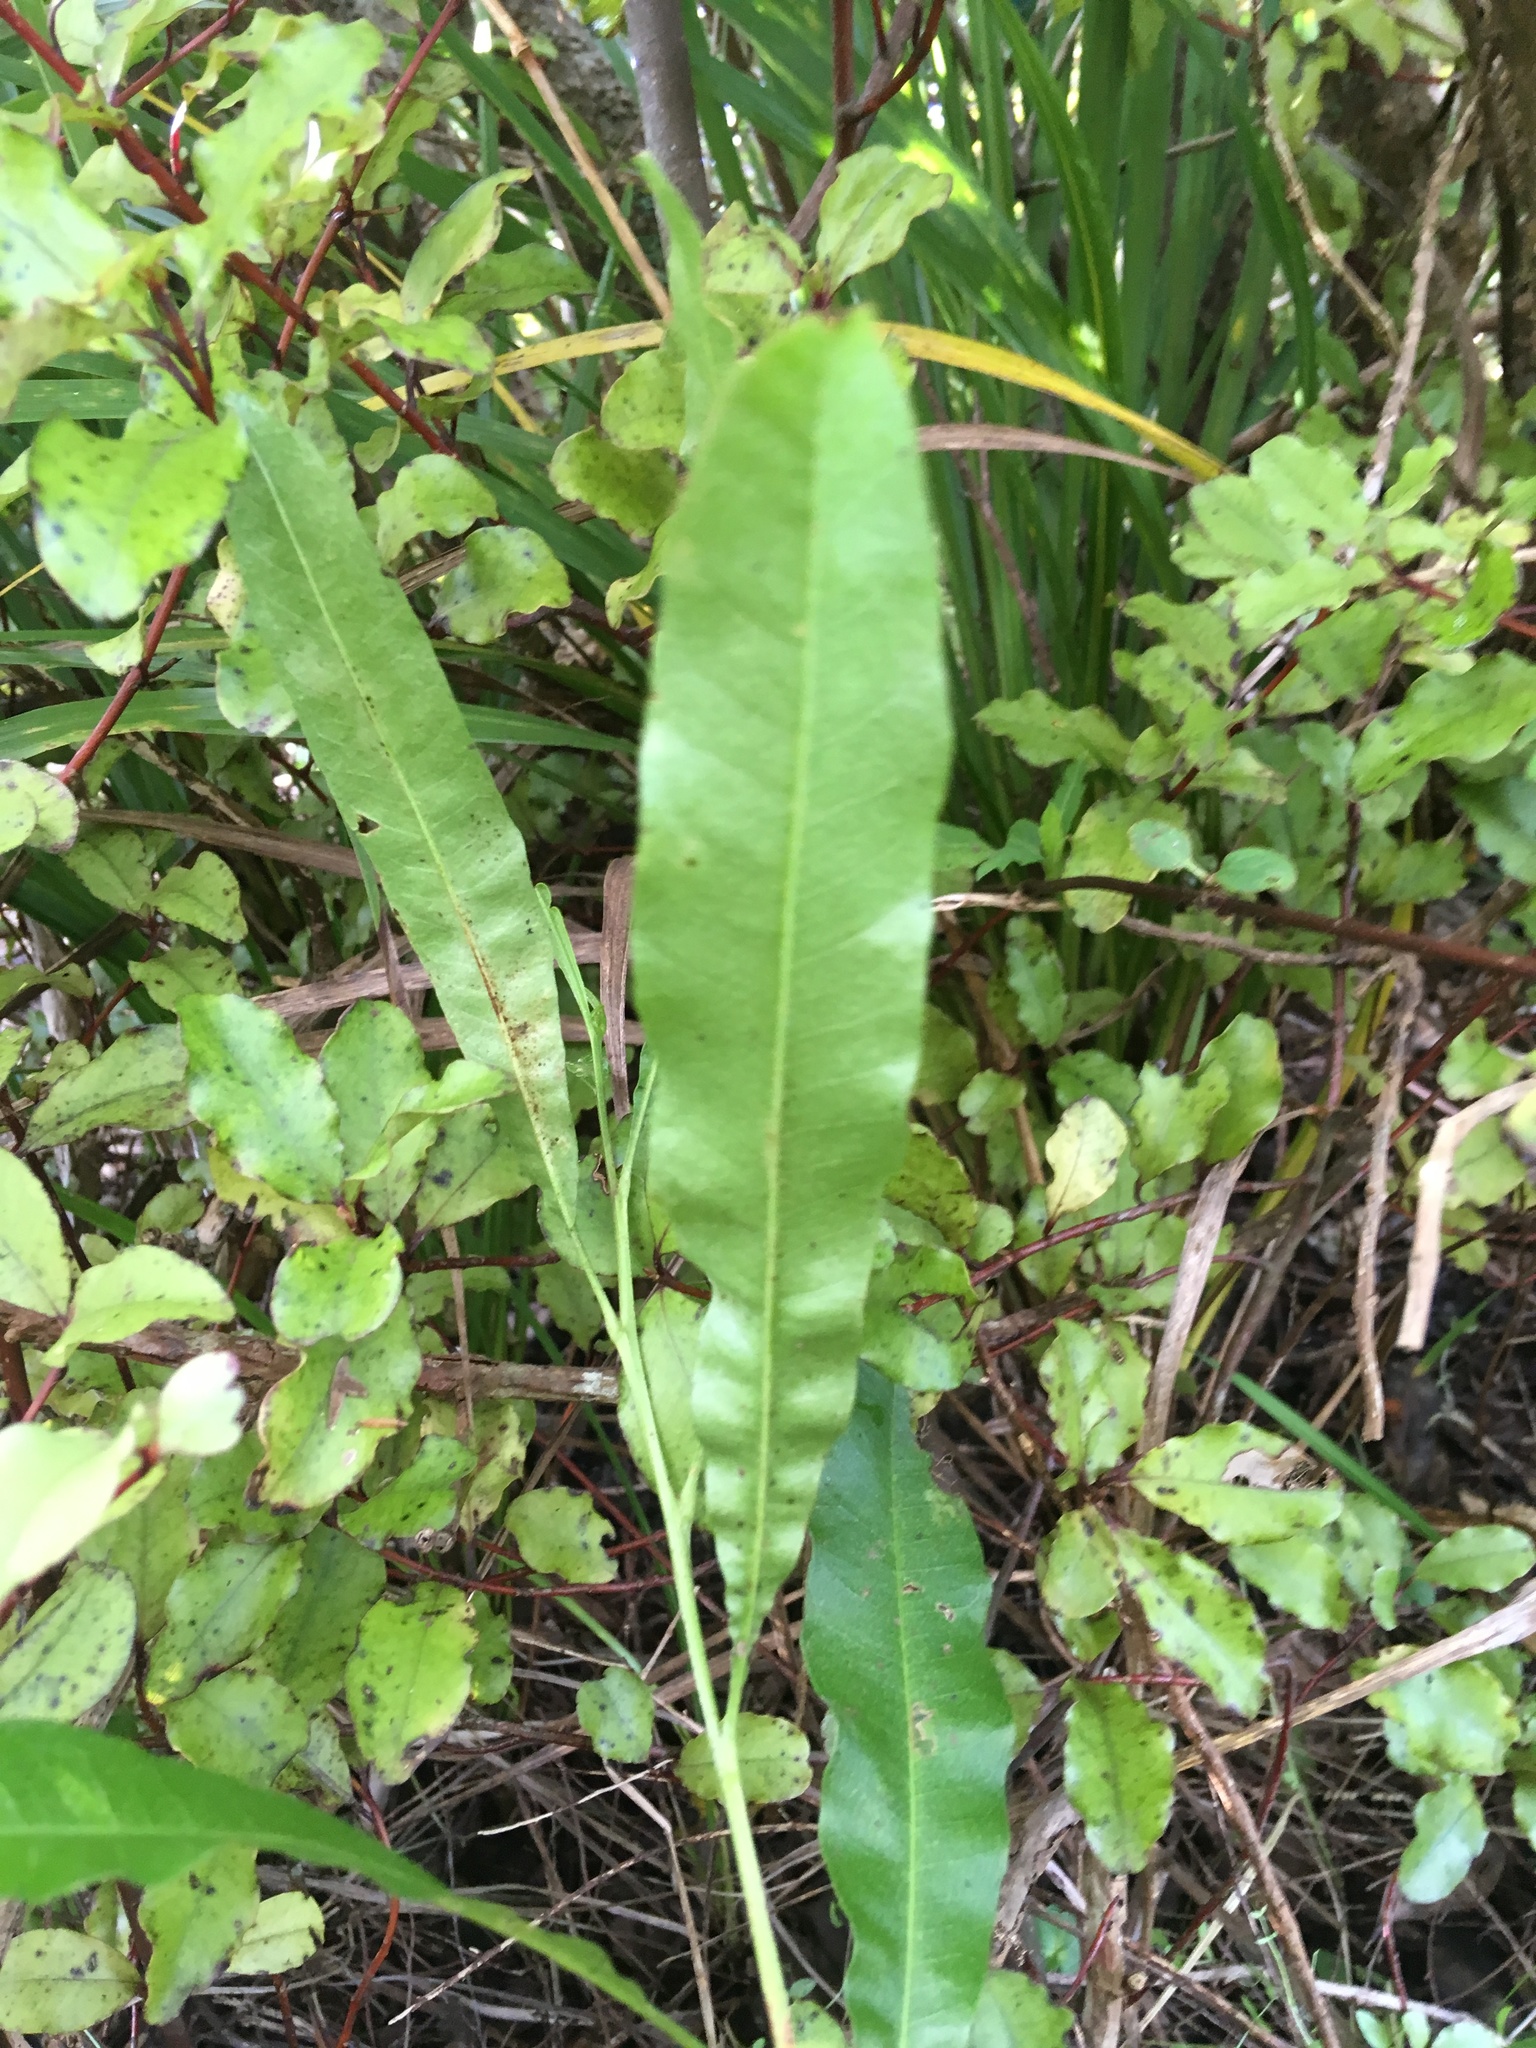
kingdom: Plantae
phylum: Tracheophyta
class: Magnoliopsida
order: Sapindales
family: Sapindaceae
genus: Dodonaea
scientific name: Dodonaea viscosa
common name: Hopbush
